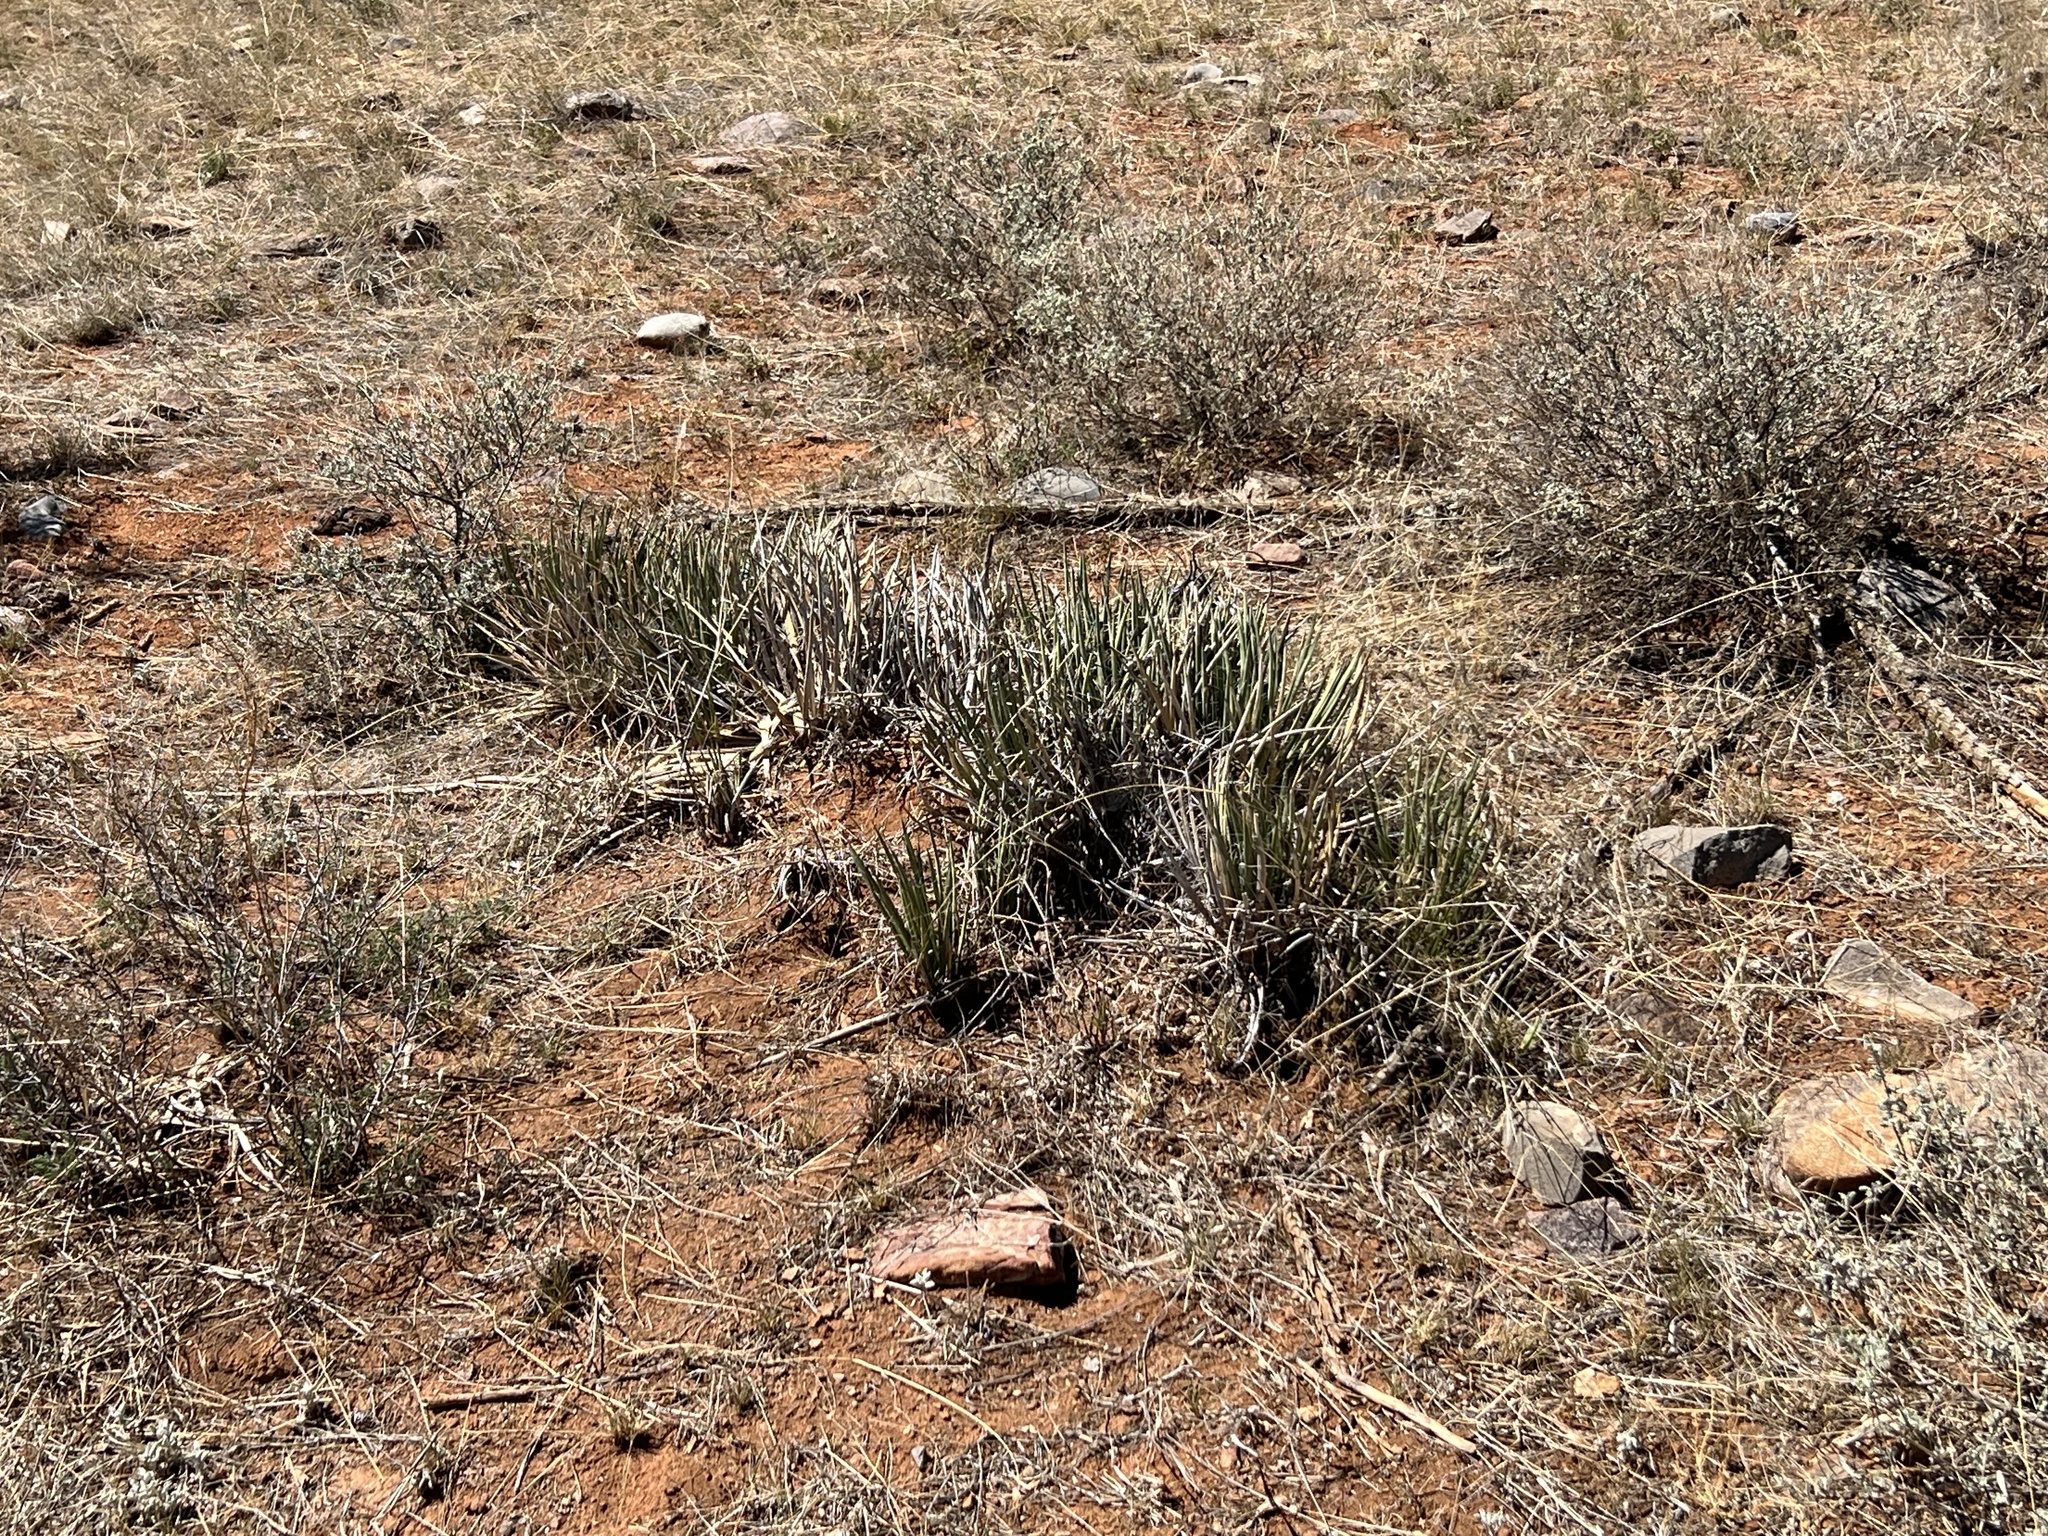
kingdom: Plantae
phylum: Tracheophyta
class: Liliopsida
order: Asparagales
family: Asparagaceae
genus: Agave
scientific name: Agave schottii
